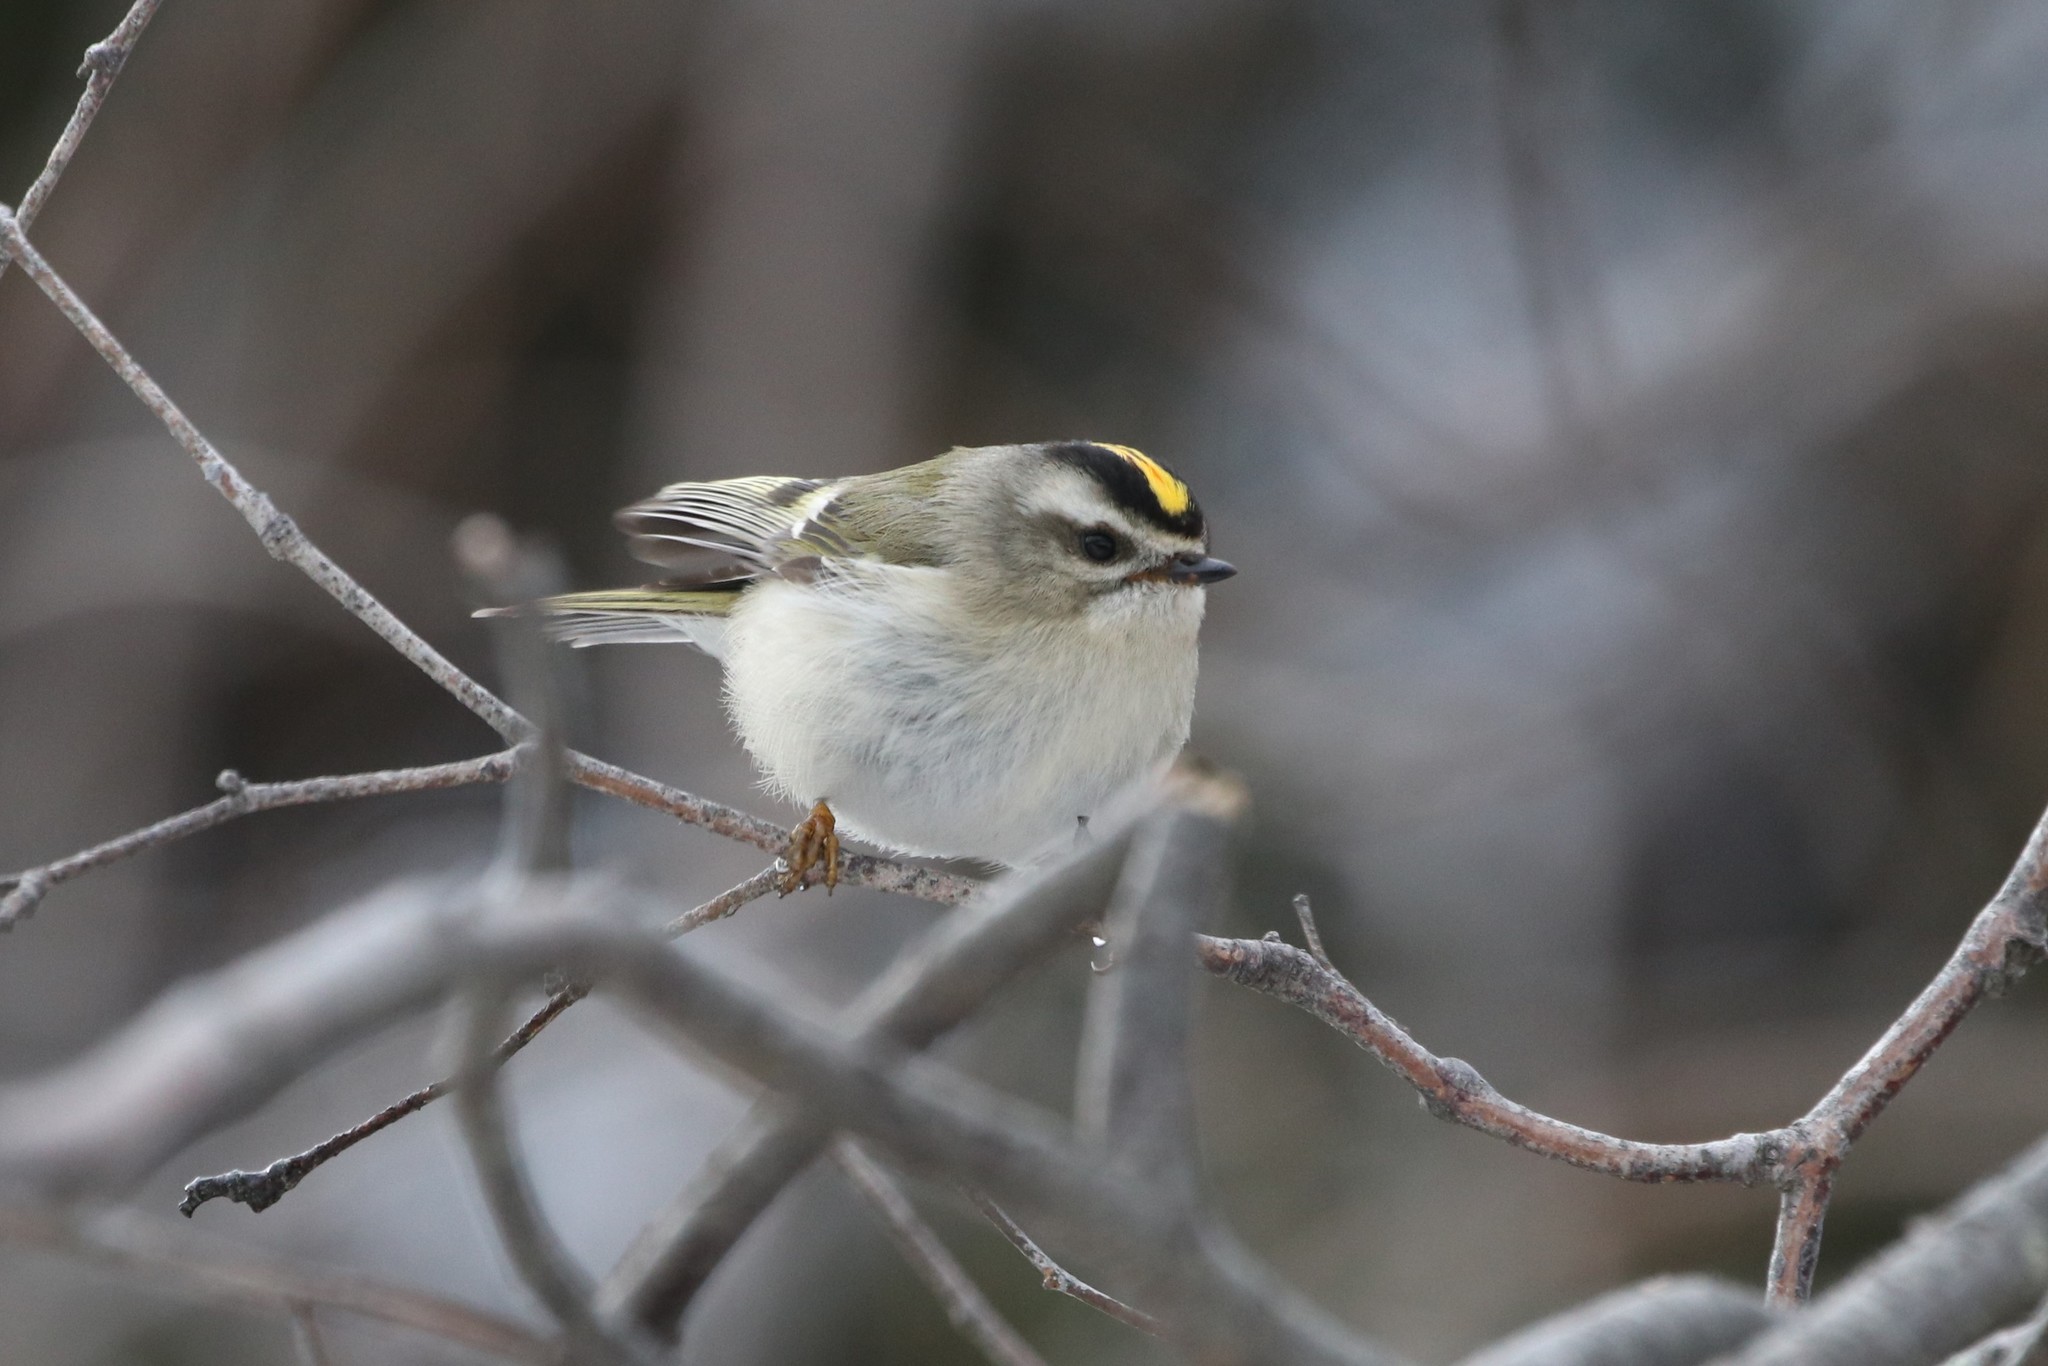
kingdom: Animalia
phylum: Chordata
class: Aves
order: Passeriformes
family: Regulidae
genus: Regulus
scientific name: Regulus satrapa
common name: Golden-crowned kinglet
